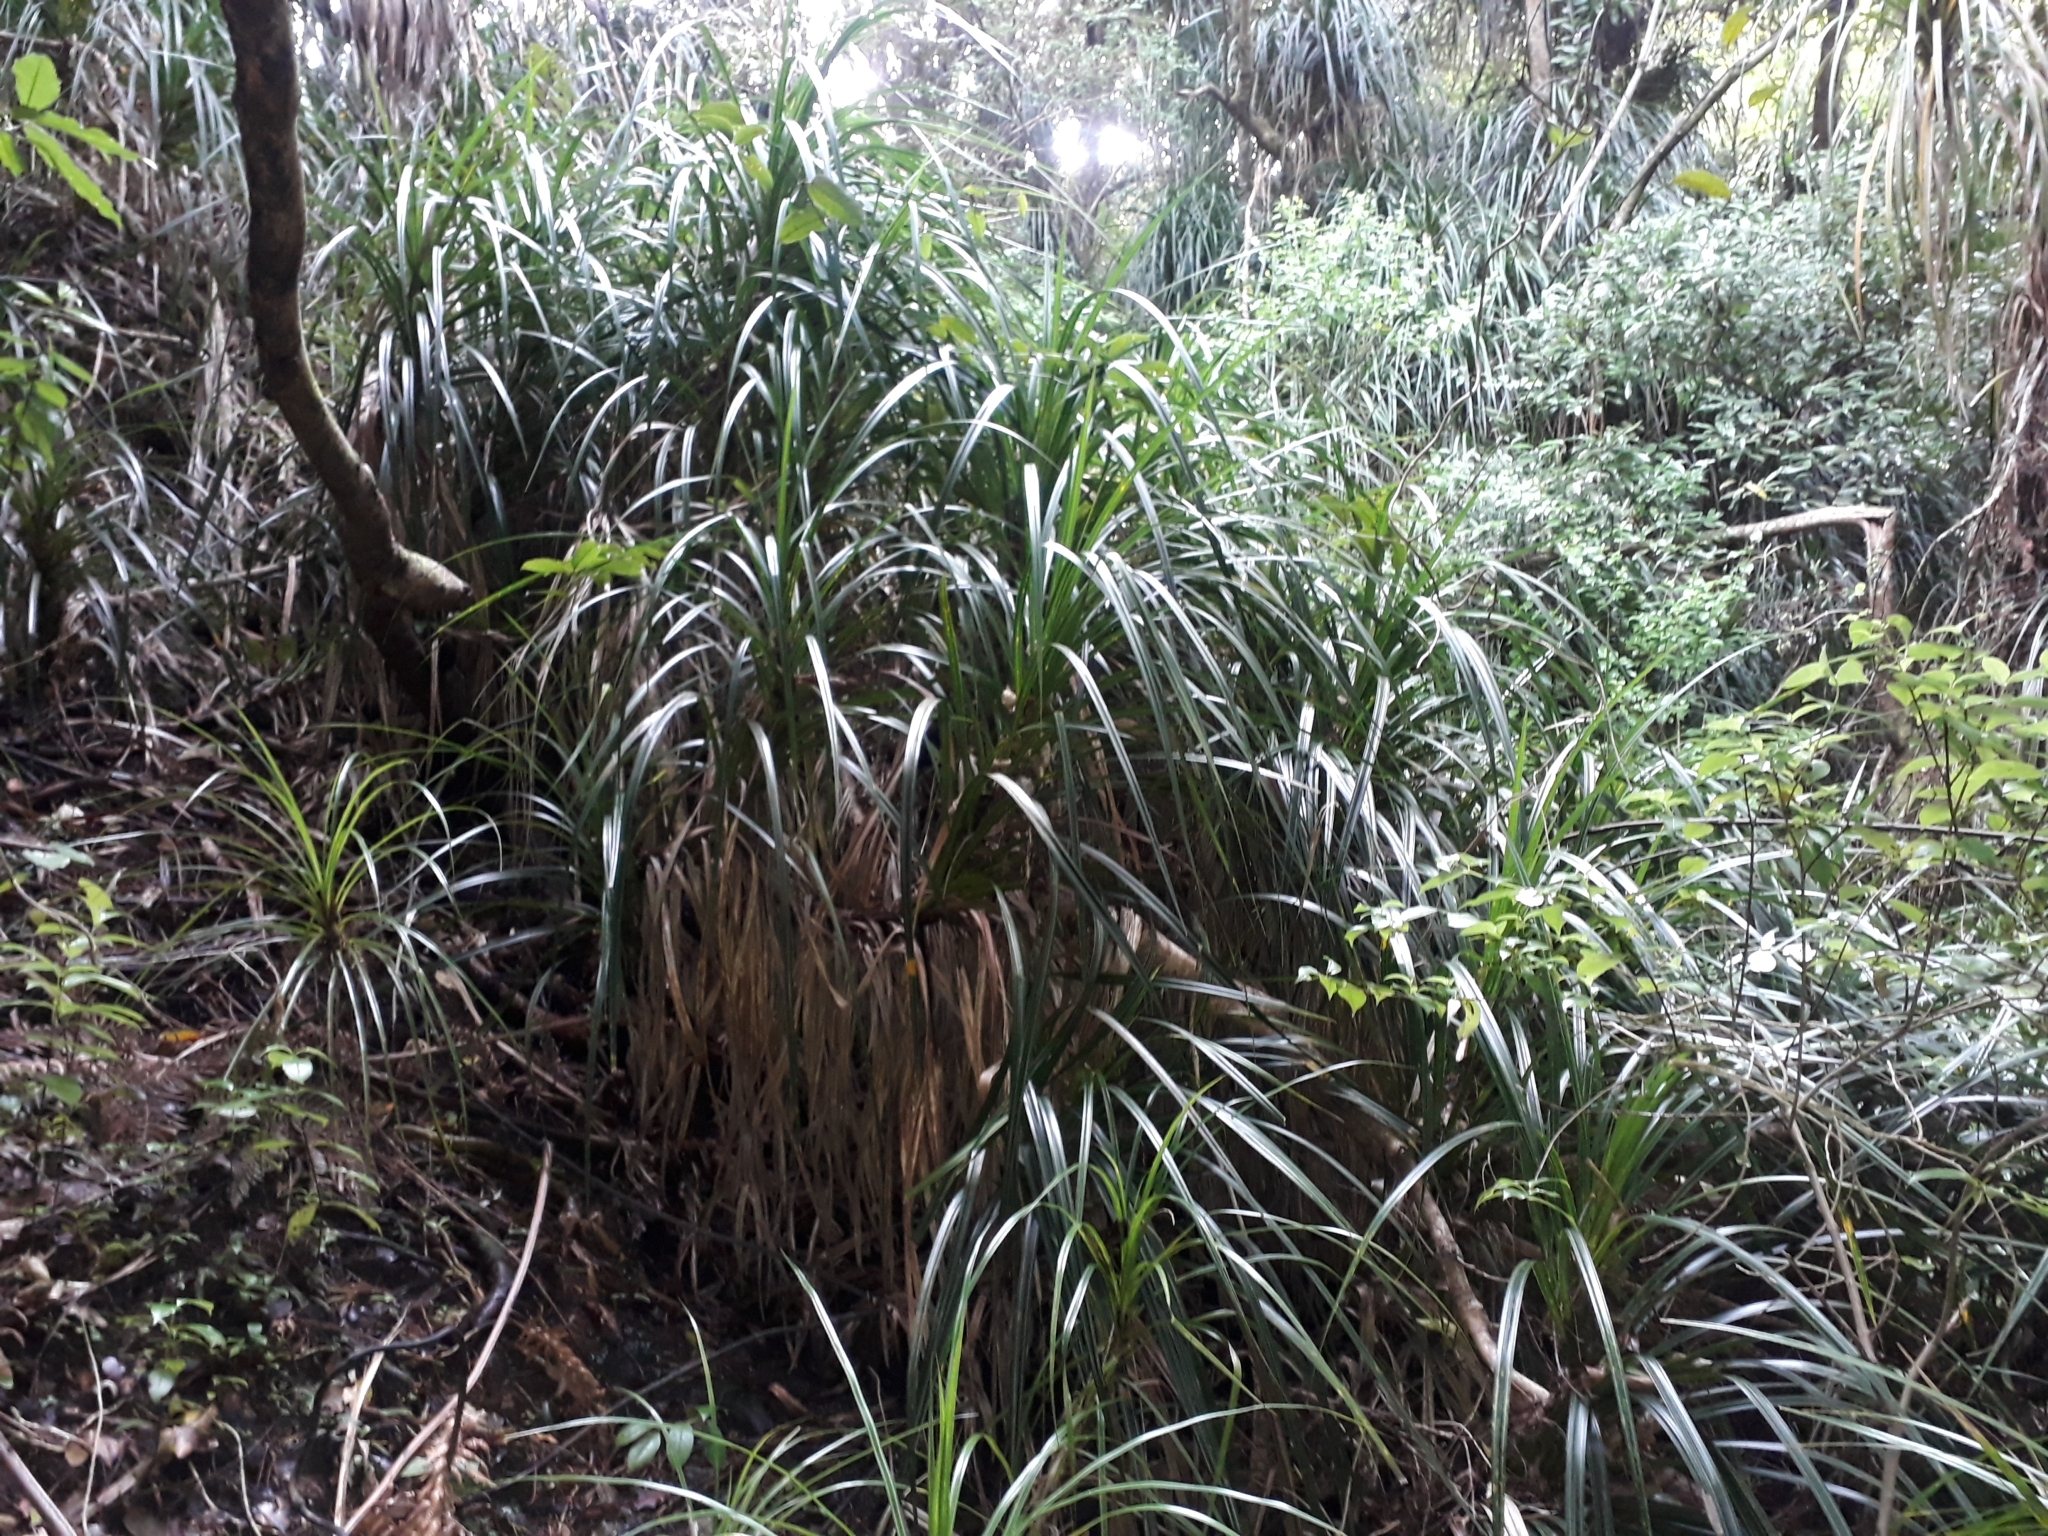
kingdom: Plantae
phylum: Tracheophyta
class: Liliopsida
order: Pandanales
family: Pandanaceae
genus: Freycinetia
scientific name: Freycinetia banksii
